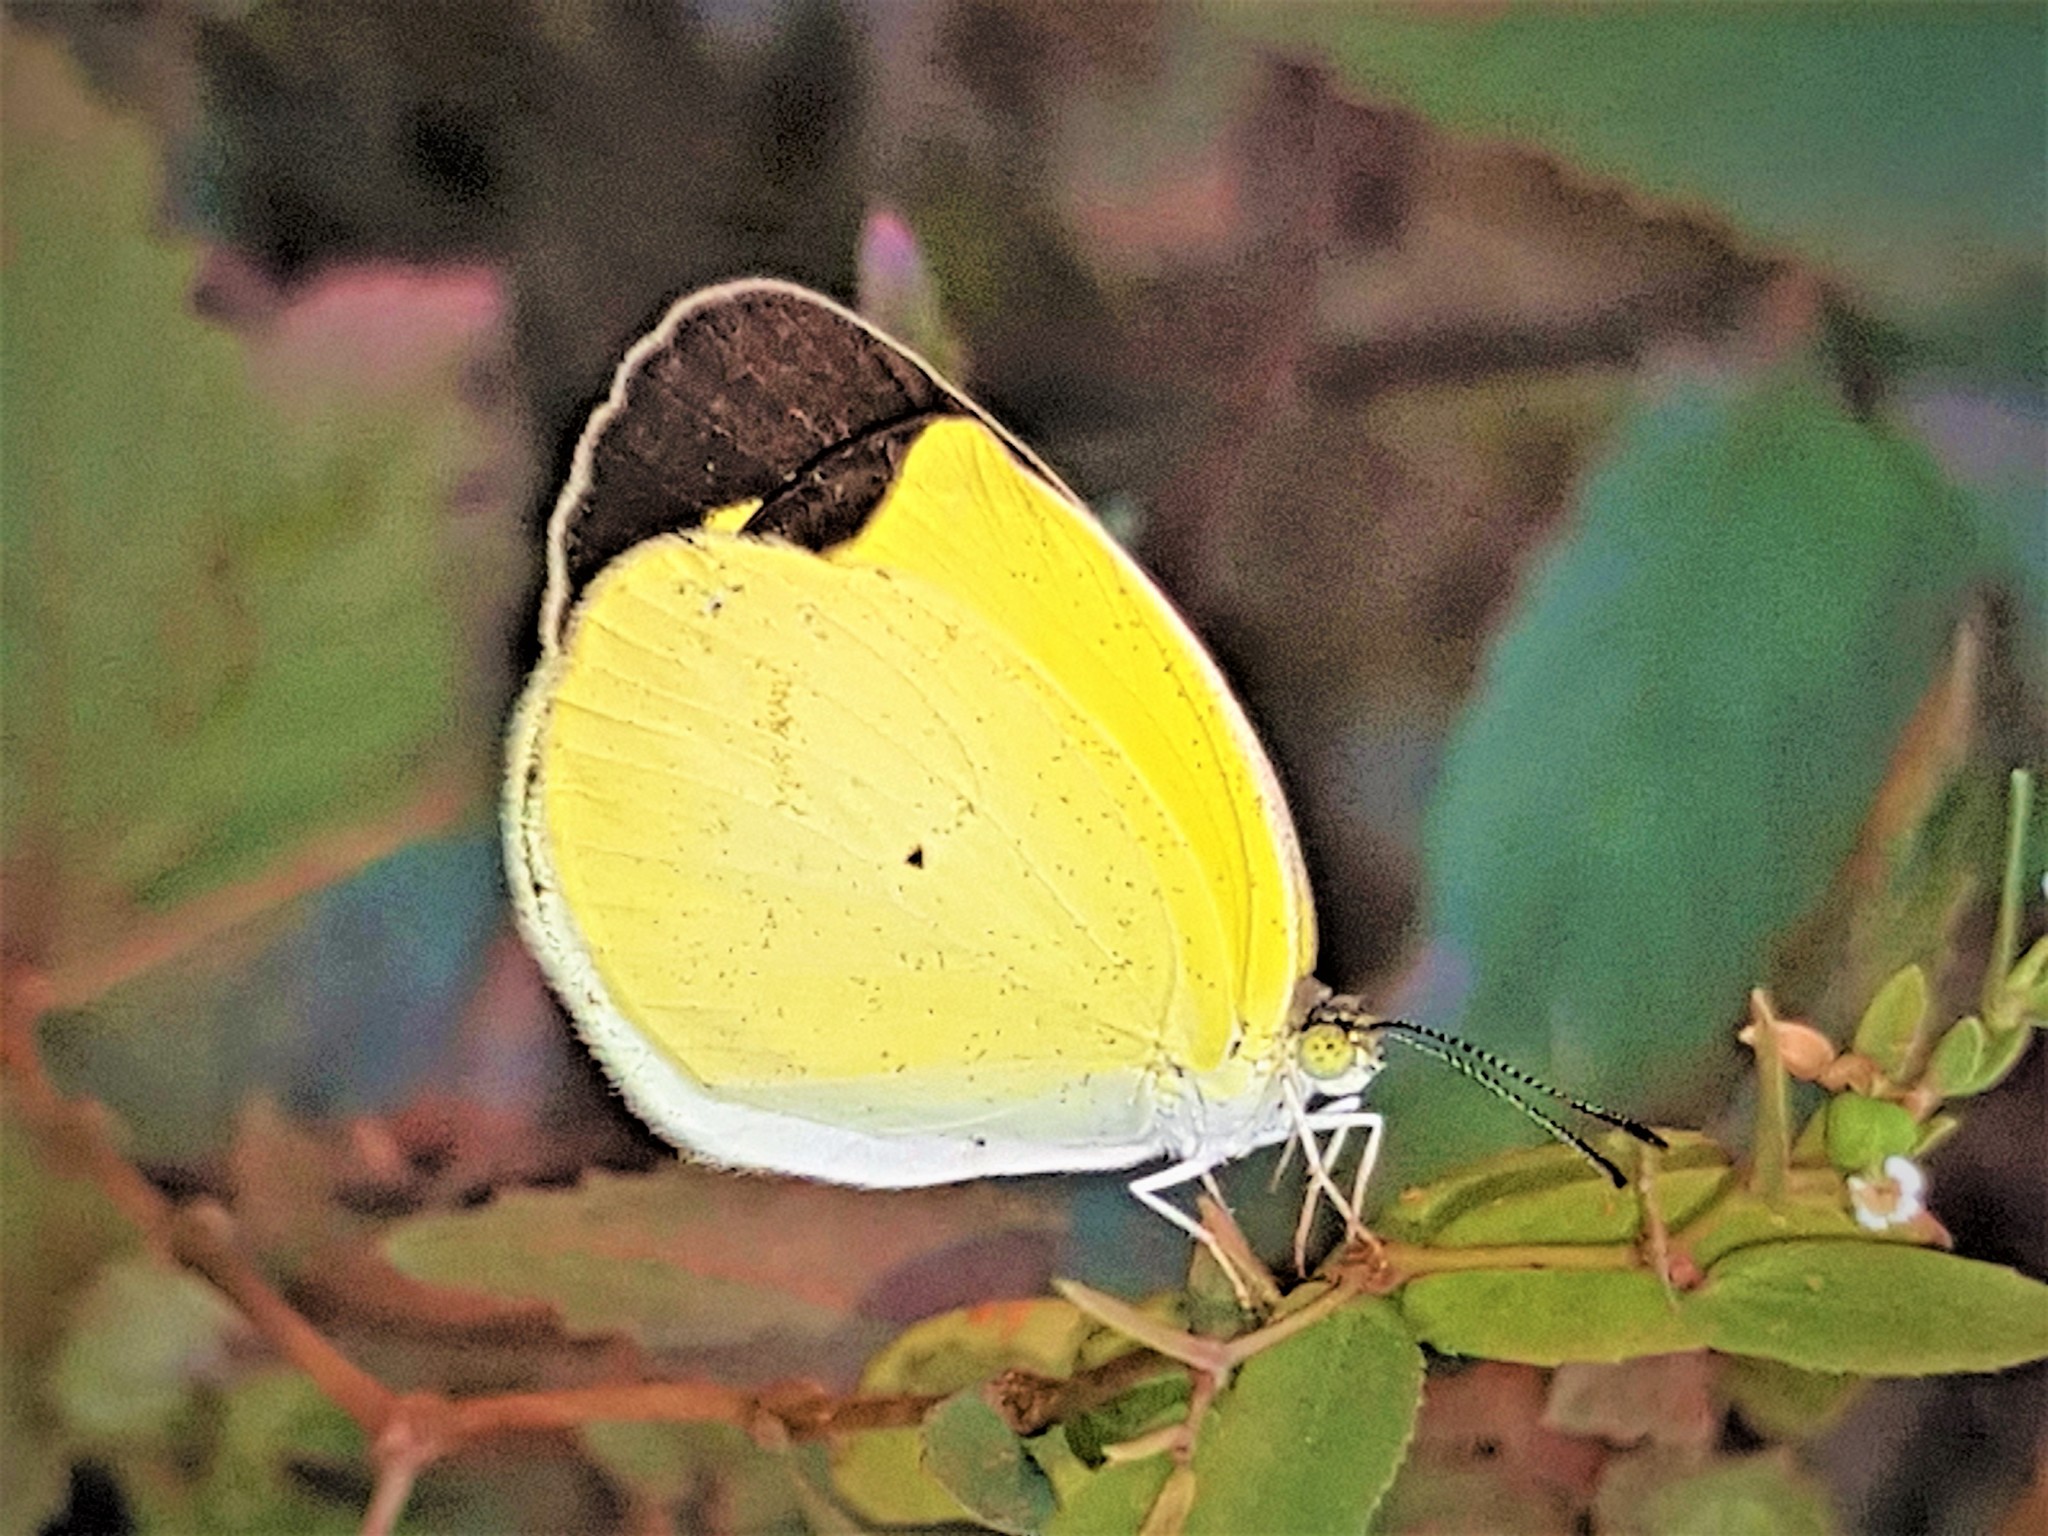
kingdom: Animalia
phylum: Arthropoda
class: Insecta
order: Lepidoptera
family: Pieridae
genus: Pyrisitia
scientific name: Pyrisitia venusta
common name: Pale yellow
